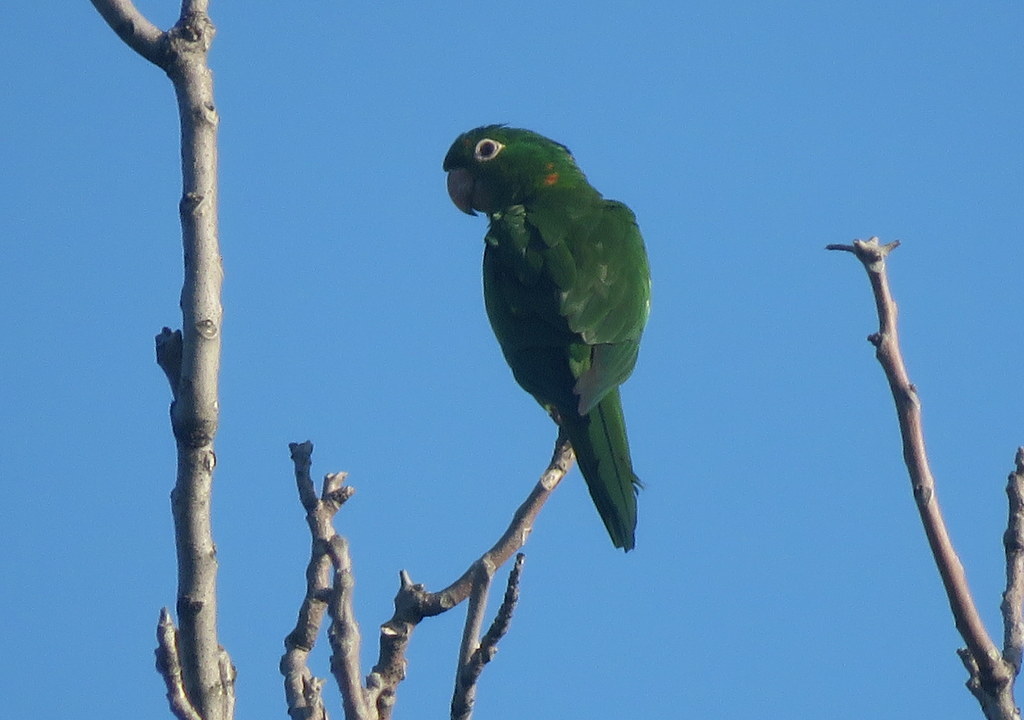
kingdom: Animalia
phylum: Chordata
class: Aves
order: Psittaciformes
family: Psittacidae
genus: Aratinga
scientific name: Aratinga leucophthalma
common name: White-eyed parakeet
